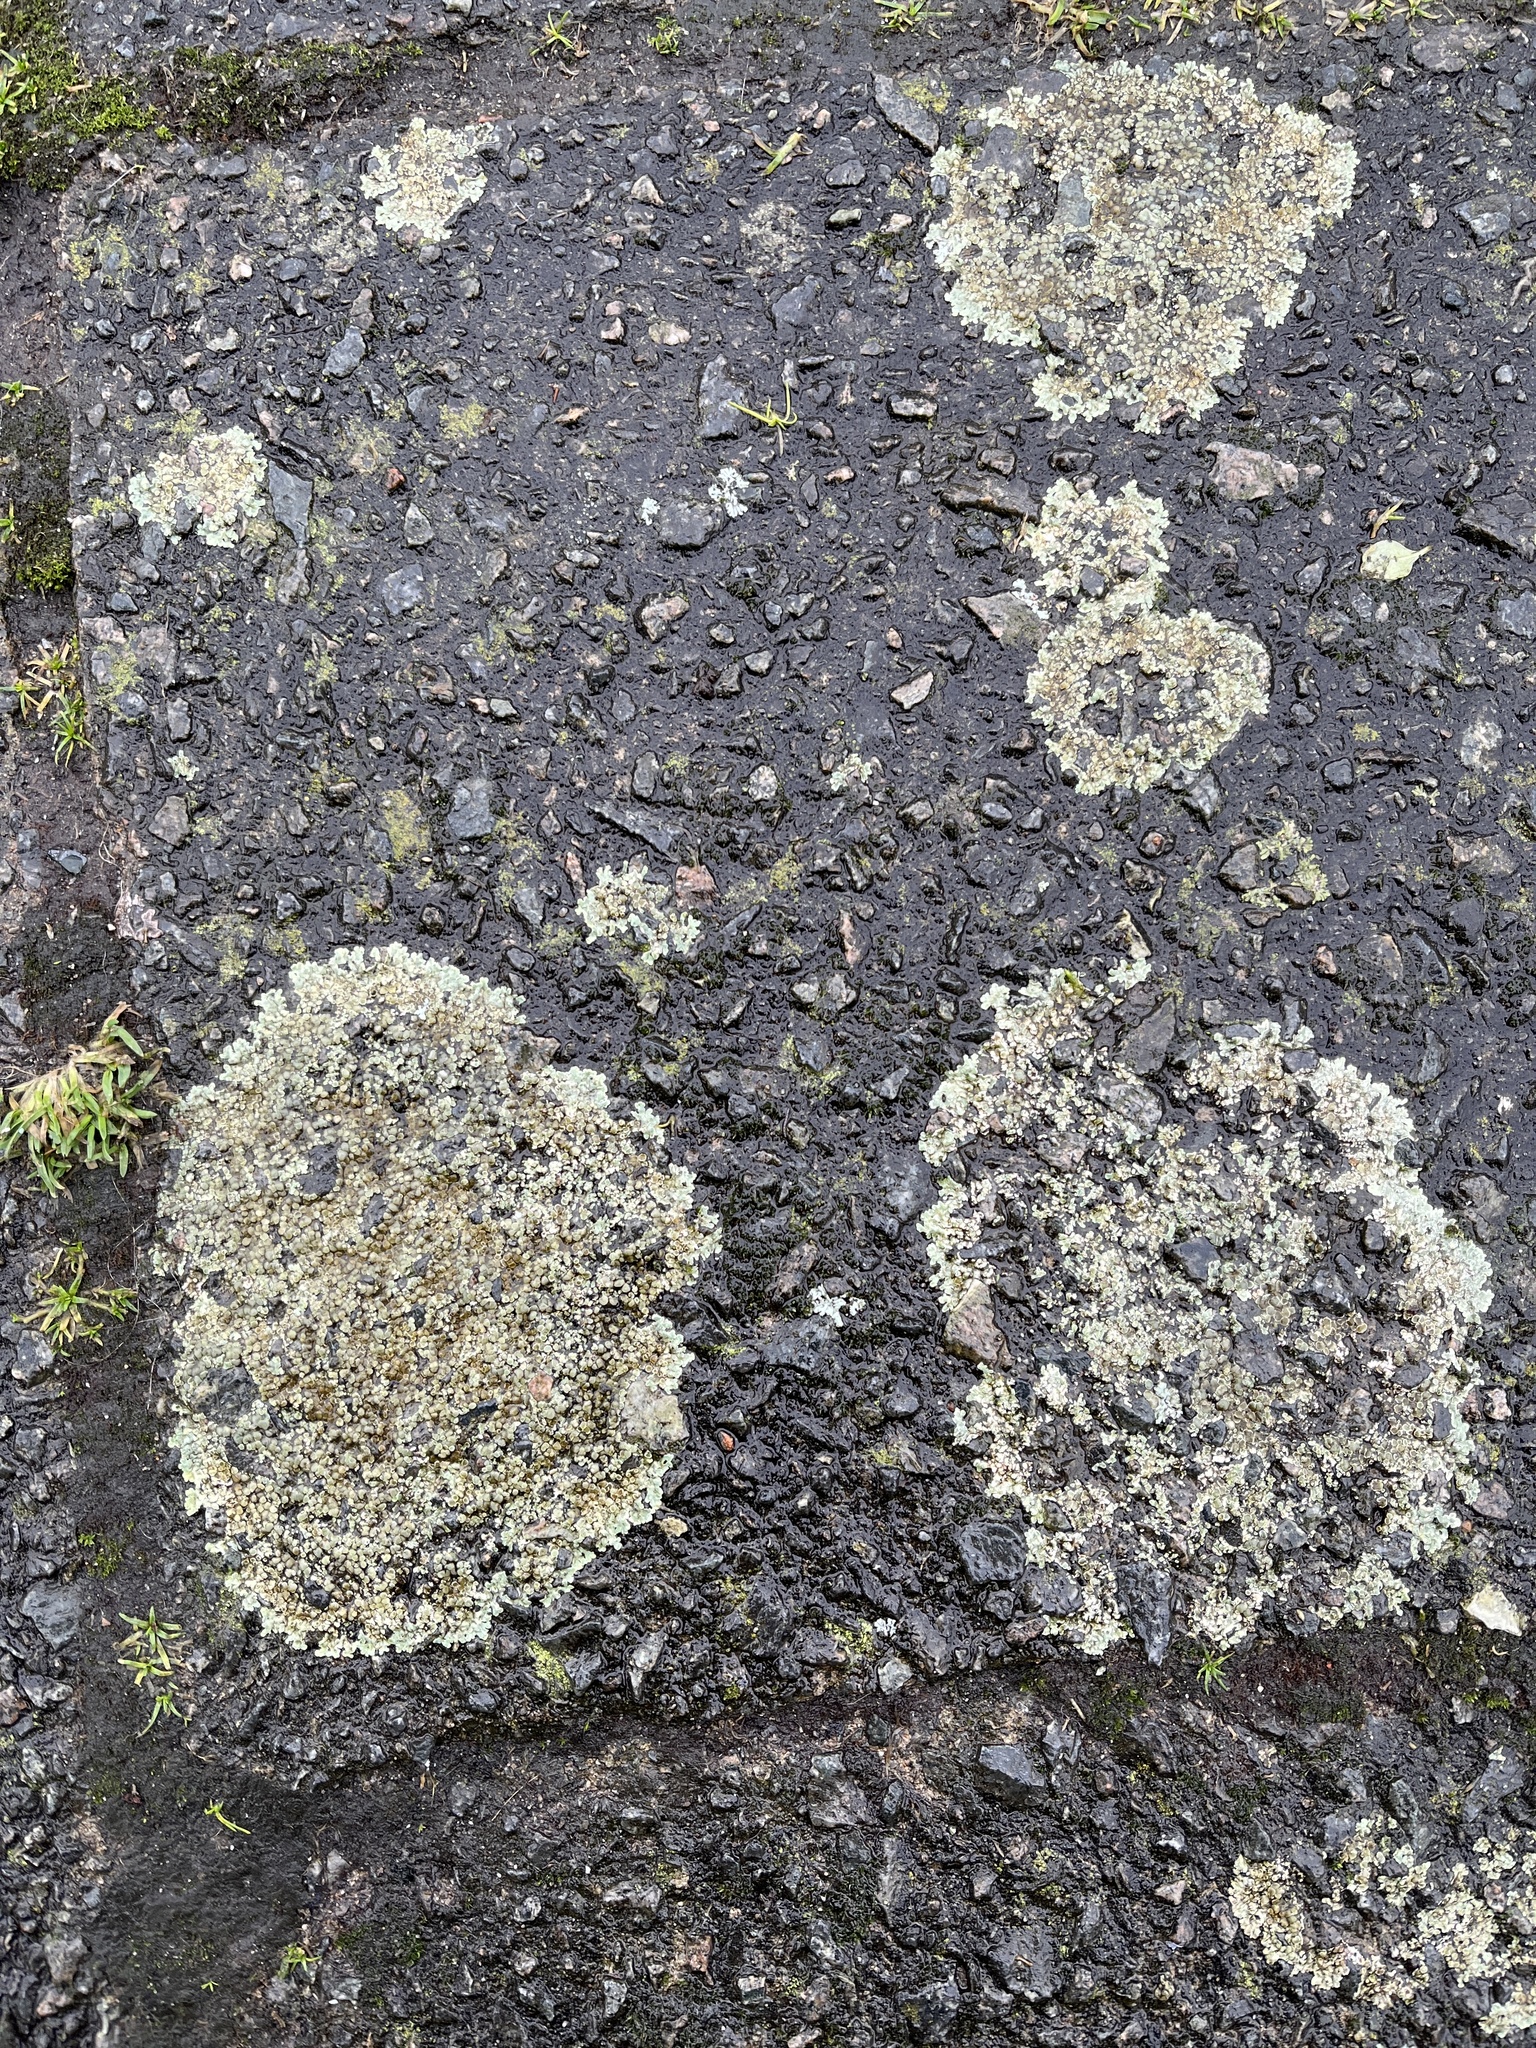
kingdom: Fungi
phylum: Ascomycota
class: Lecanoromycetes
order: Lecanorales
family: Lecanoraceae
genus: Protoparmeliopsis
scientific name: Protoparmeliopsis muralis
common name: Stonewall rim lichen
